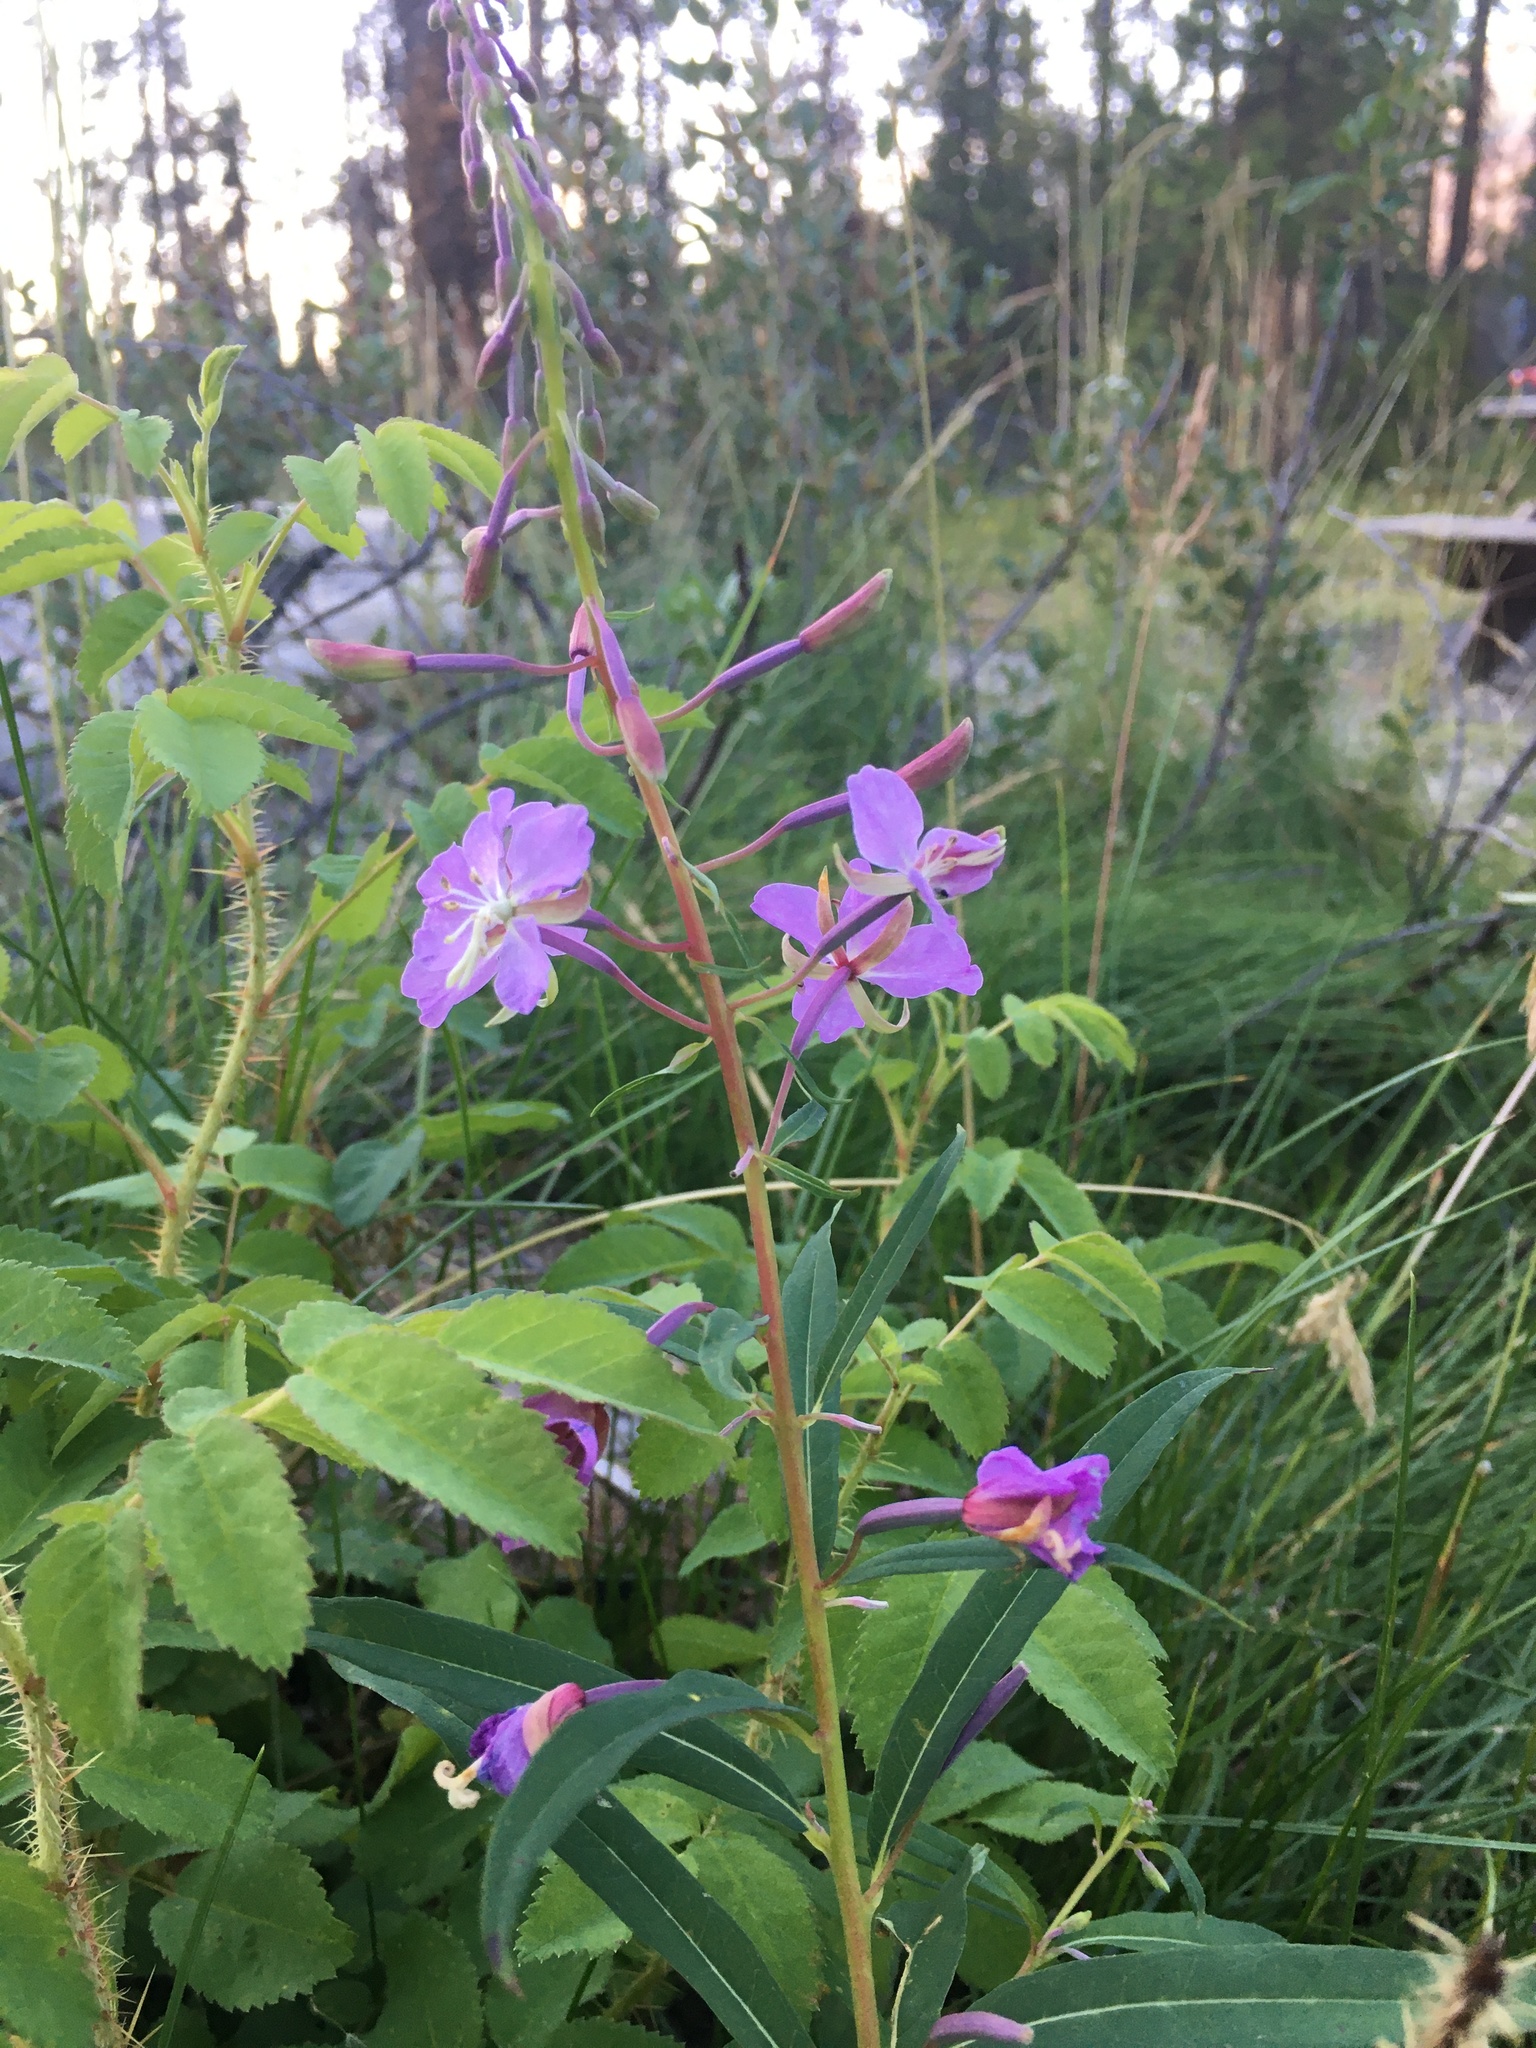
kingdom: Plantae
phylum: Tracheophyta
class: Magnoliopsida
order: Myrtales
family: Onagraceae
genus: Chamaenerion
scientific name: Chamaenerion angustifolium
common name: Fireweed
